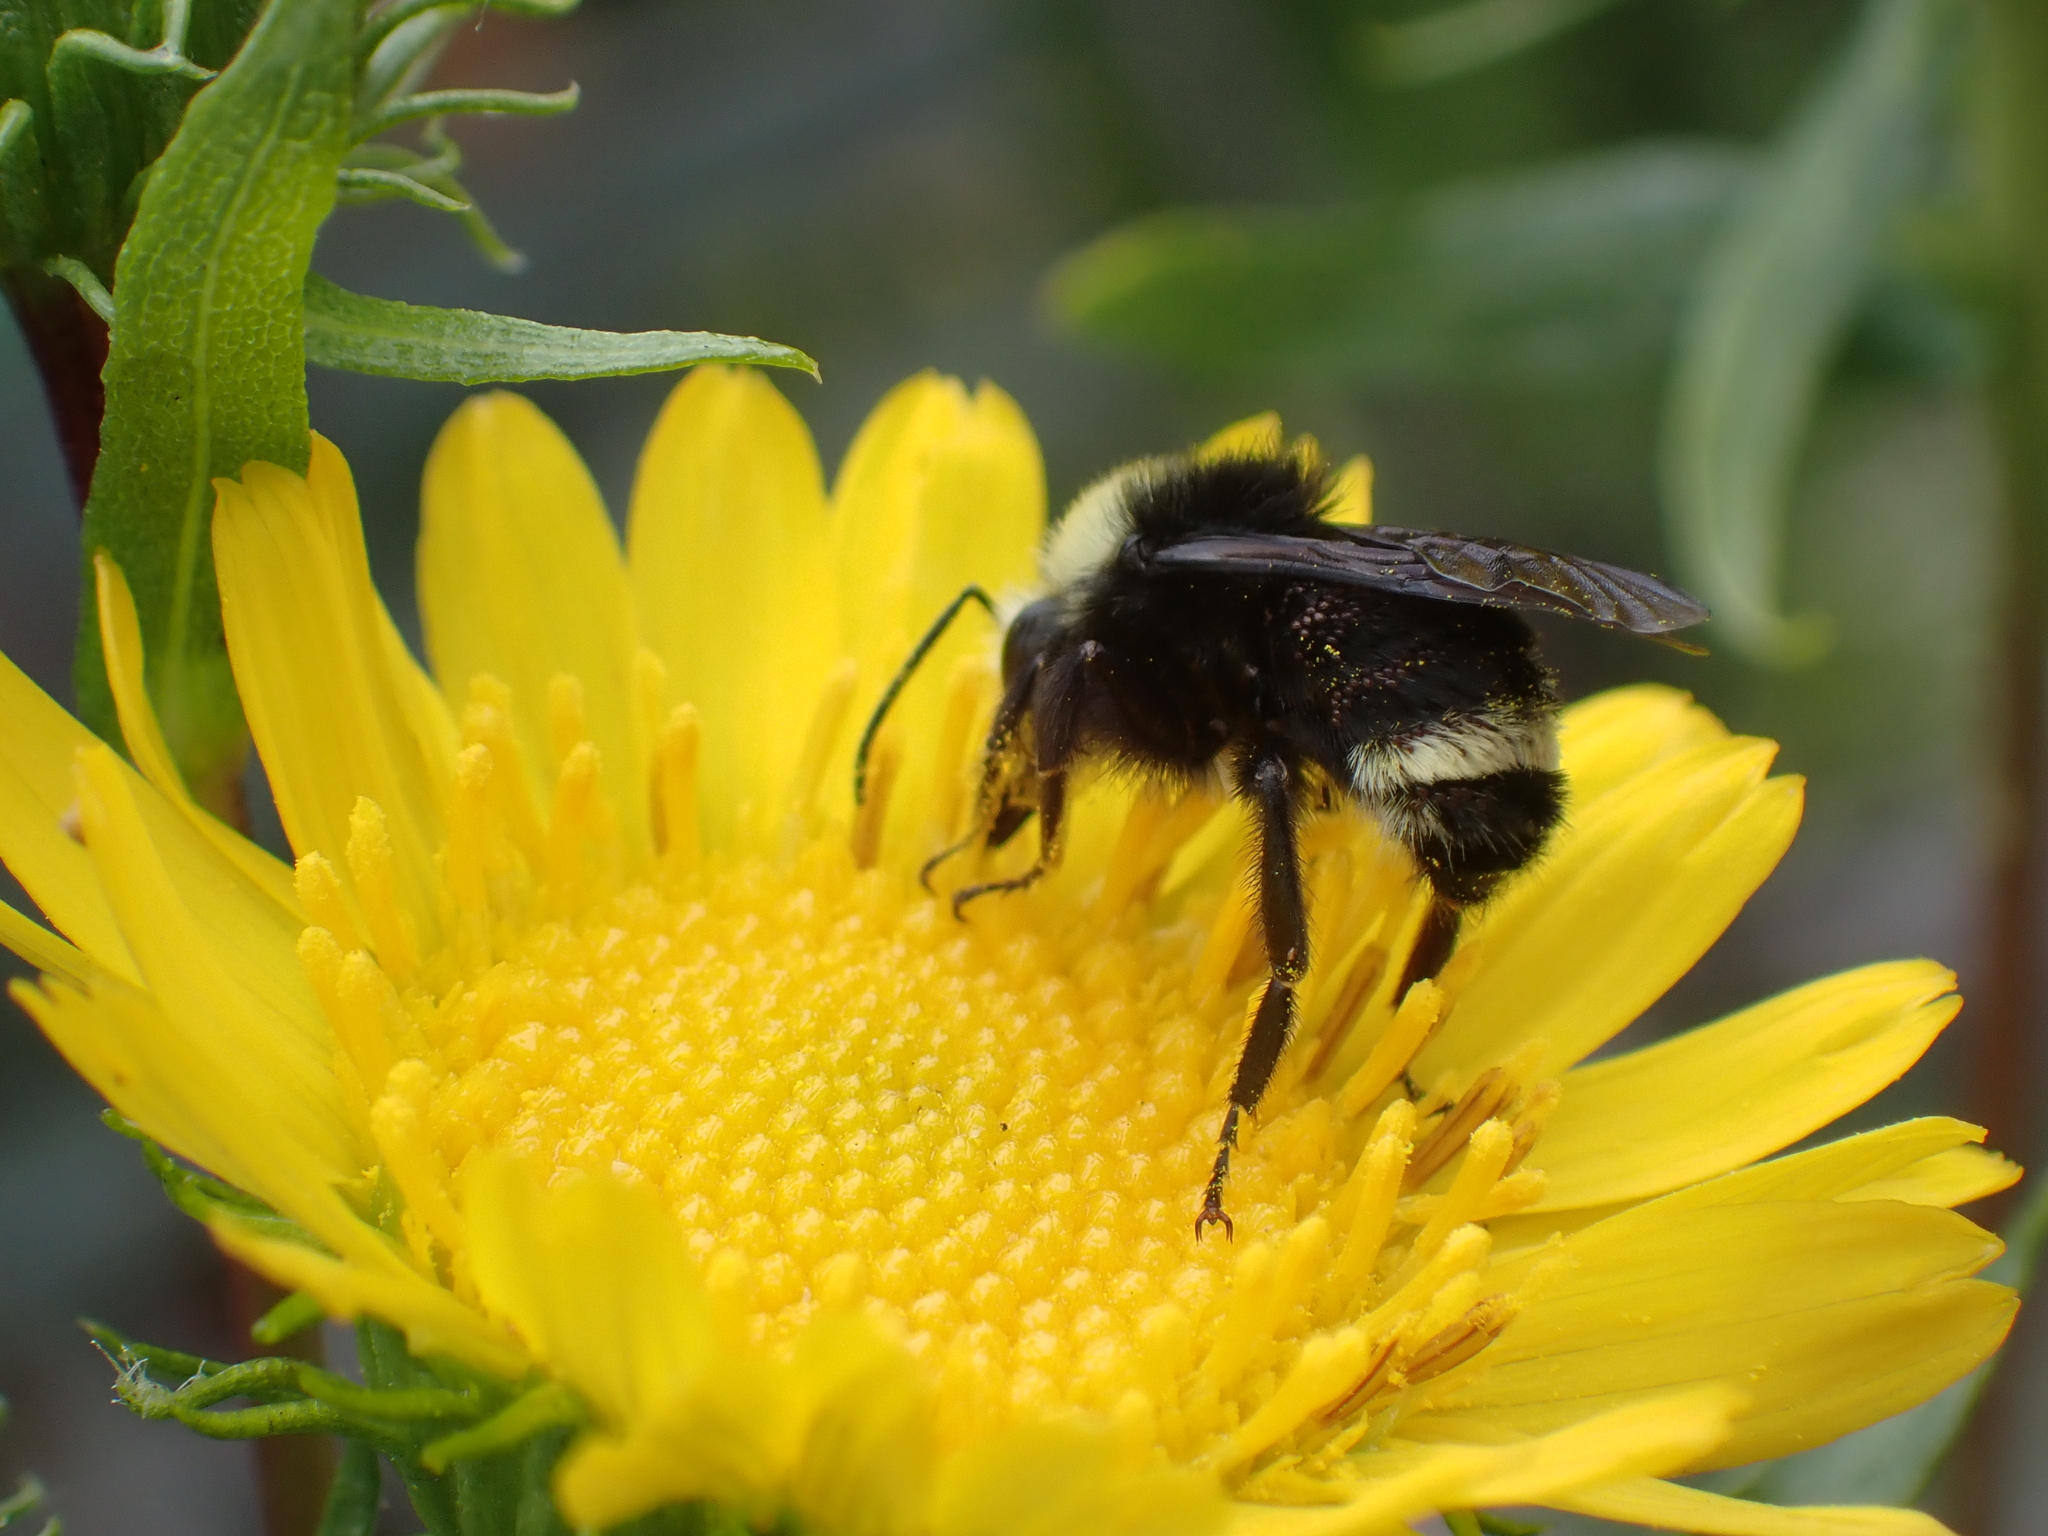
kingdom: Animalia
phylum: Arthropoda
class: Insecta
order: Hymenoptera
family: Apidae
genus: Bombus
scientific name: Bombus vosnesenskii
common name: Vosnesensky bumble bee
